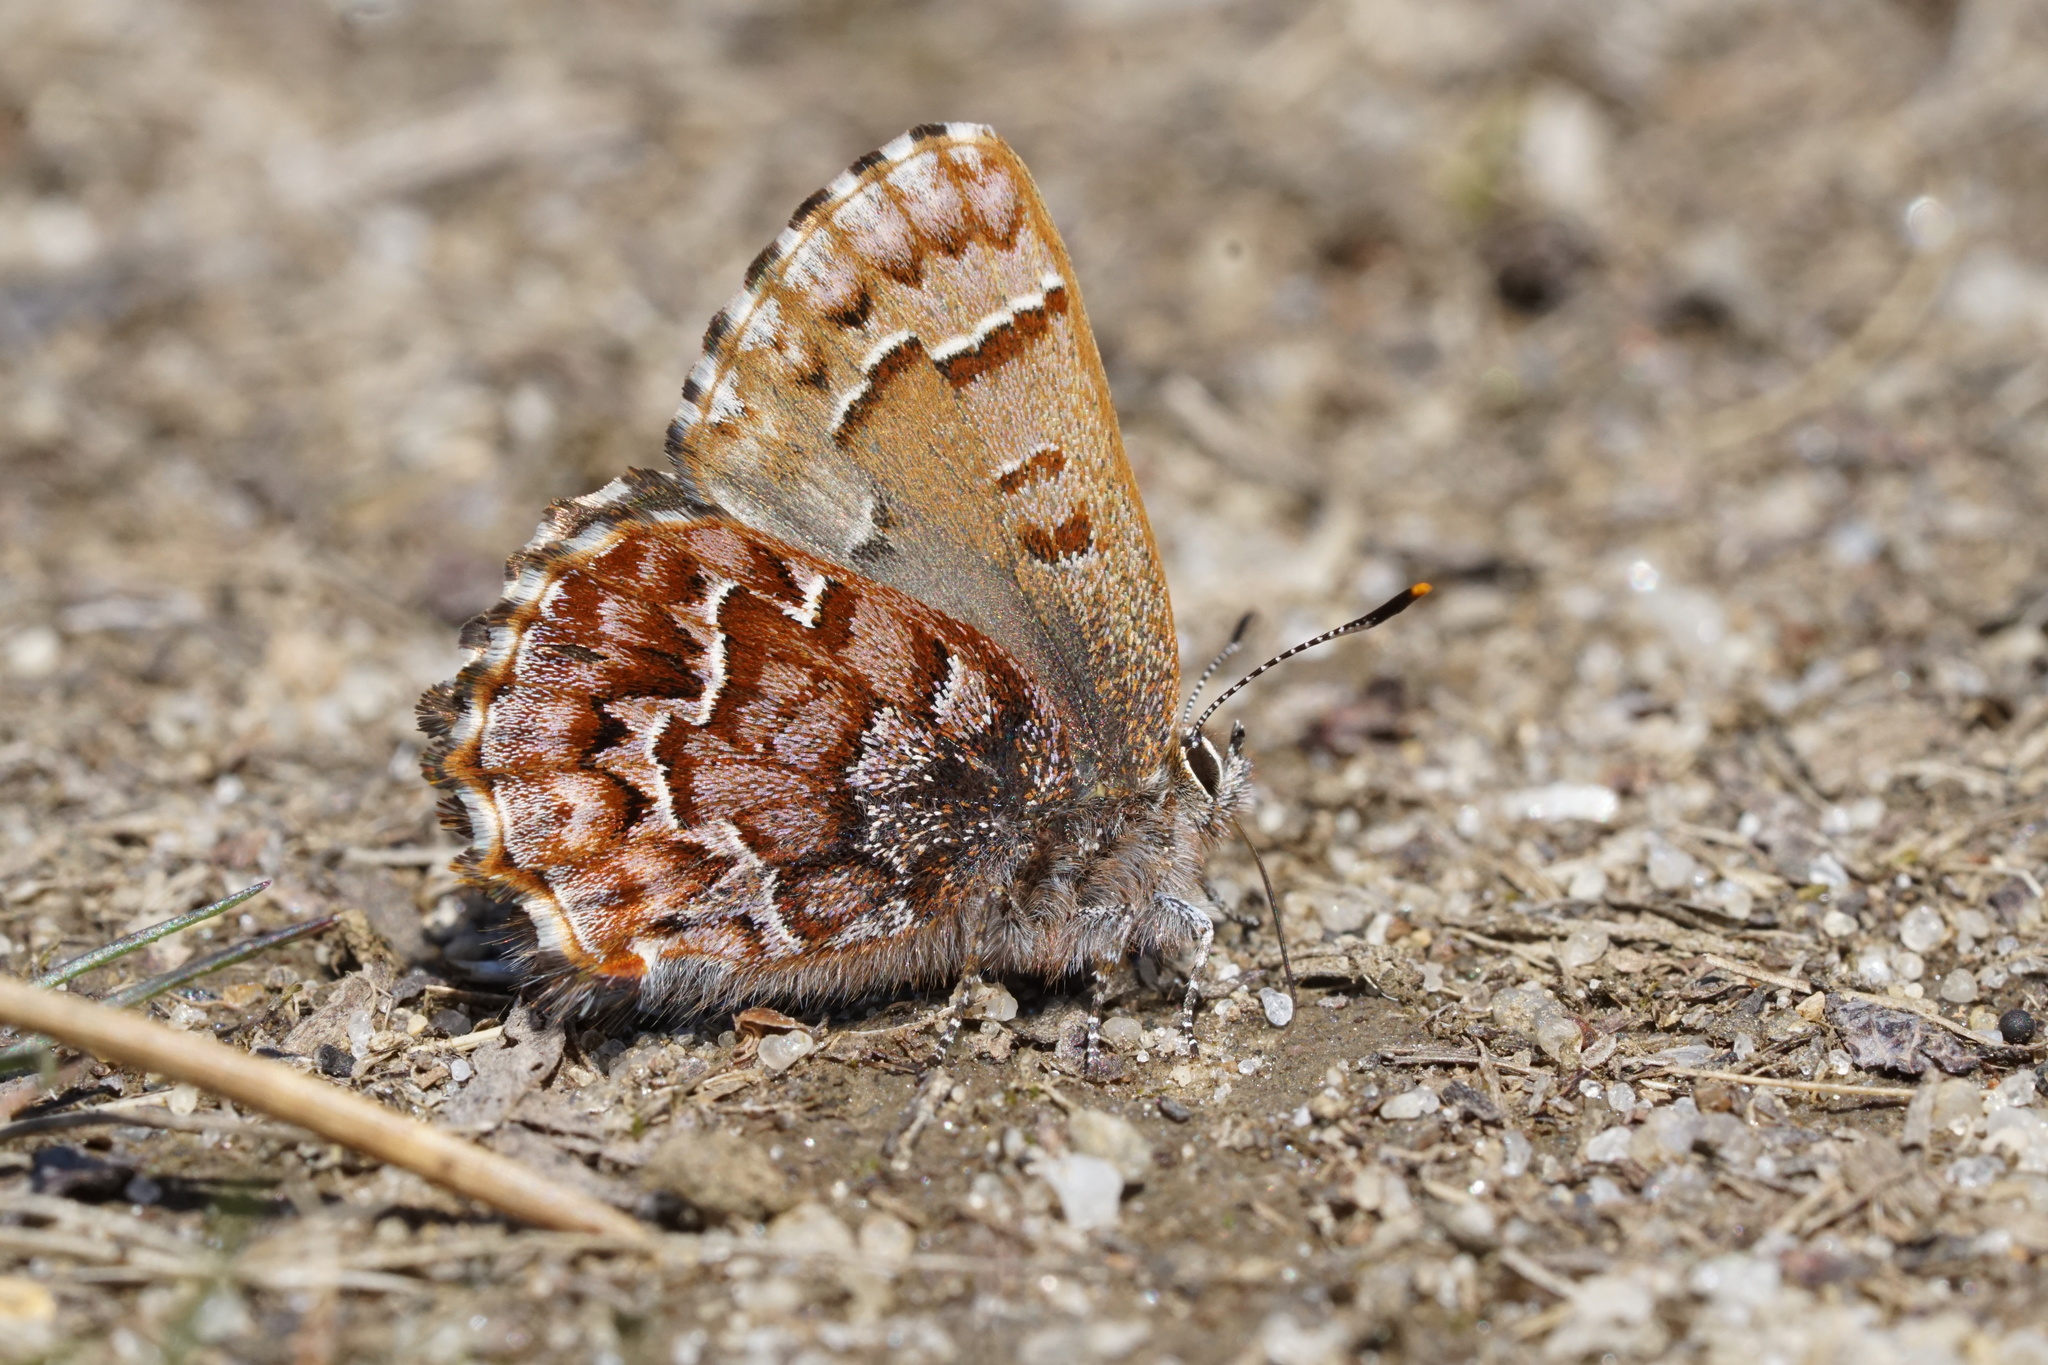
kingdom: Animalia
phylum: Arthropoda
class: Insecta
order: Lepidoptera
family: Lycaenidae
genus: Incisalia
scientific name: Incisalia niphon
